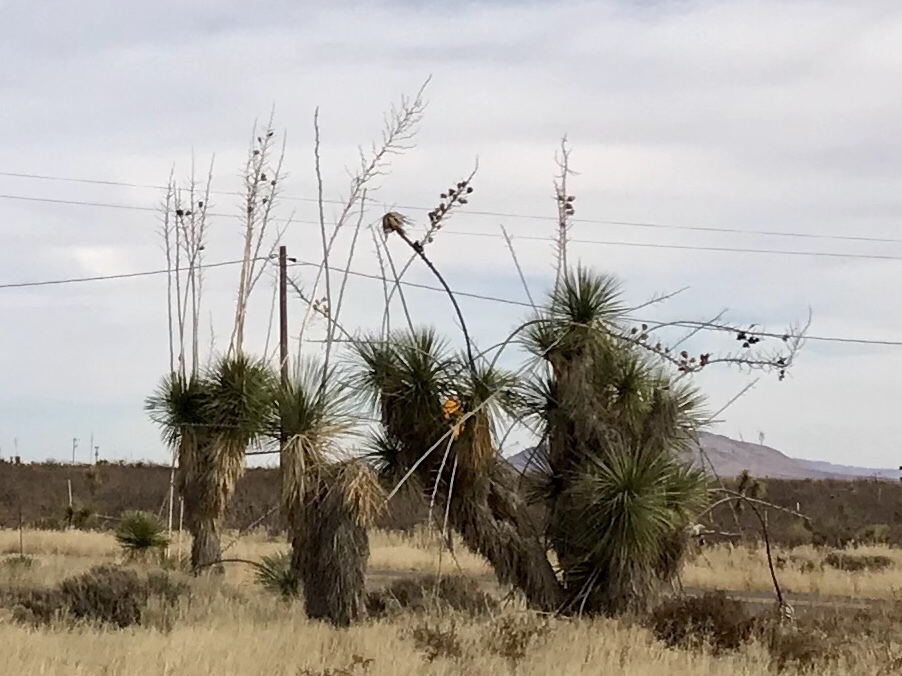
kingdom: Plantae
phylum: Tracheophyta
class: Liliopsida
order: Asparagales
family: Asparagaceae
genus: Yucca
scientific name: Yucca elata
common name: Palmella
